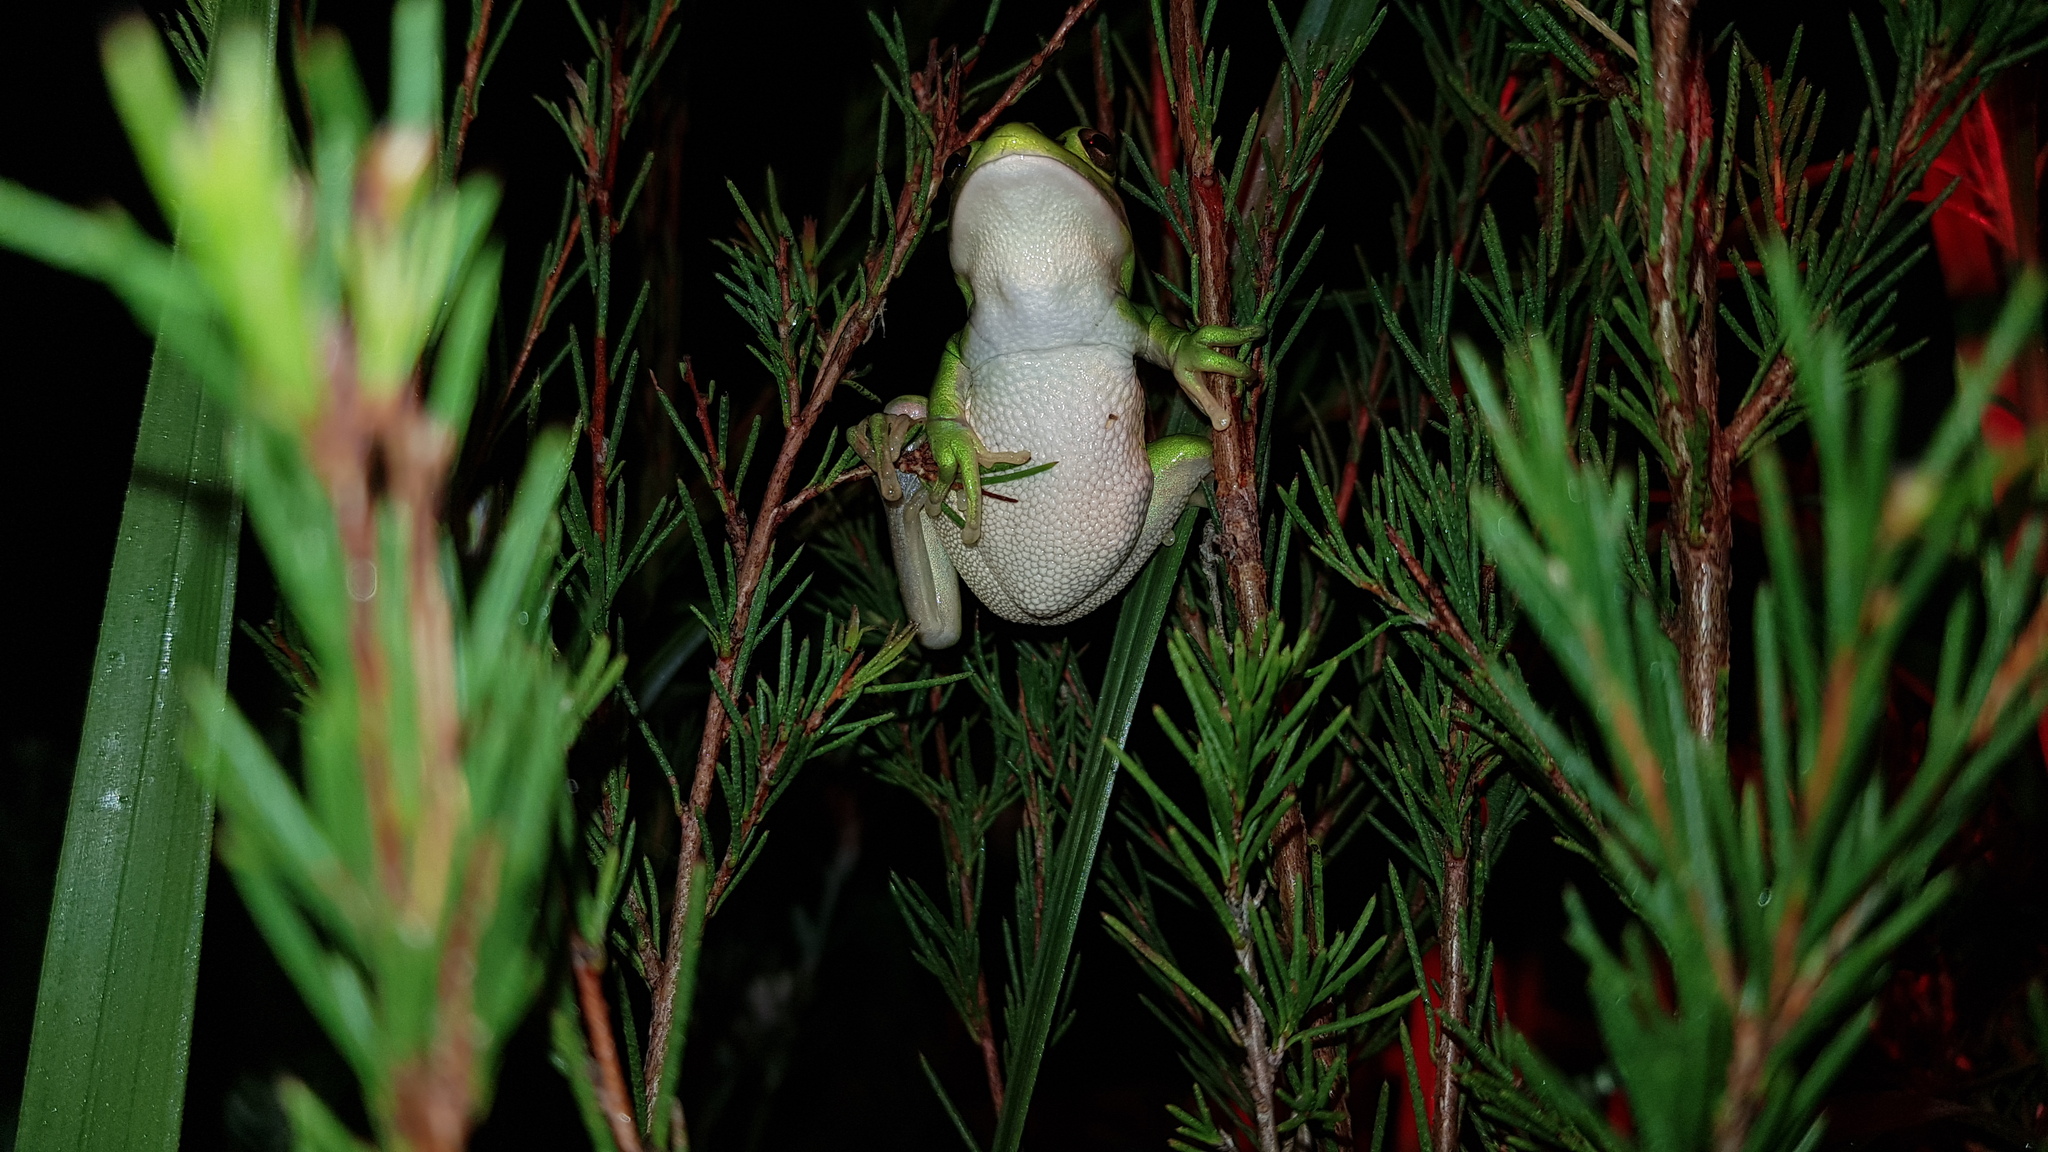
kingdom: Animalia
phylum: Chordata
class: Amphibia
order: Anura
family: Pelodryadidae
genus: Ranoidea
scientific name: Ranoidea aurea
